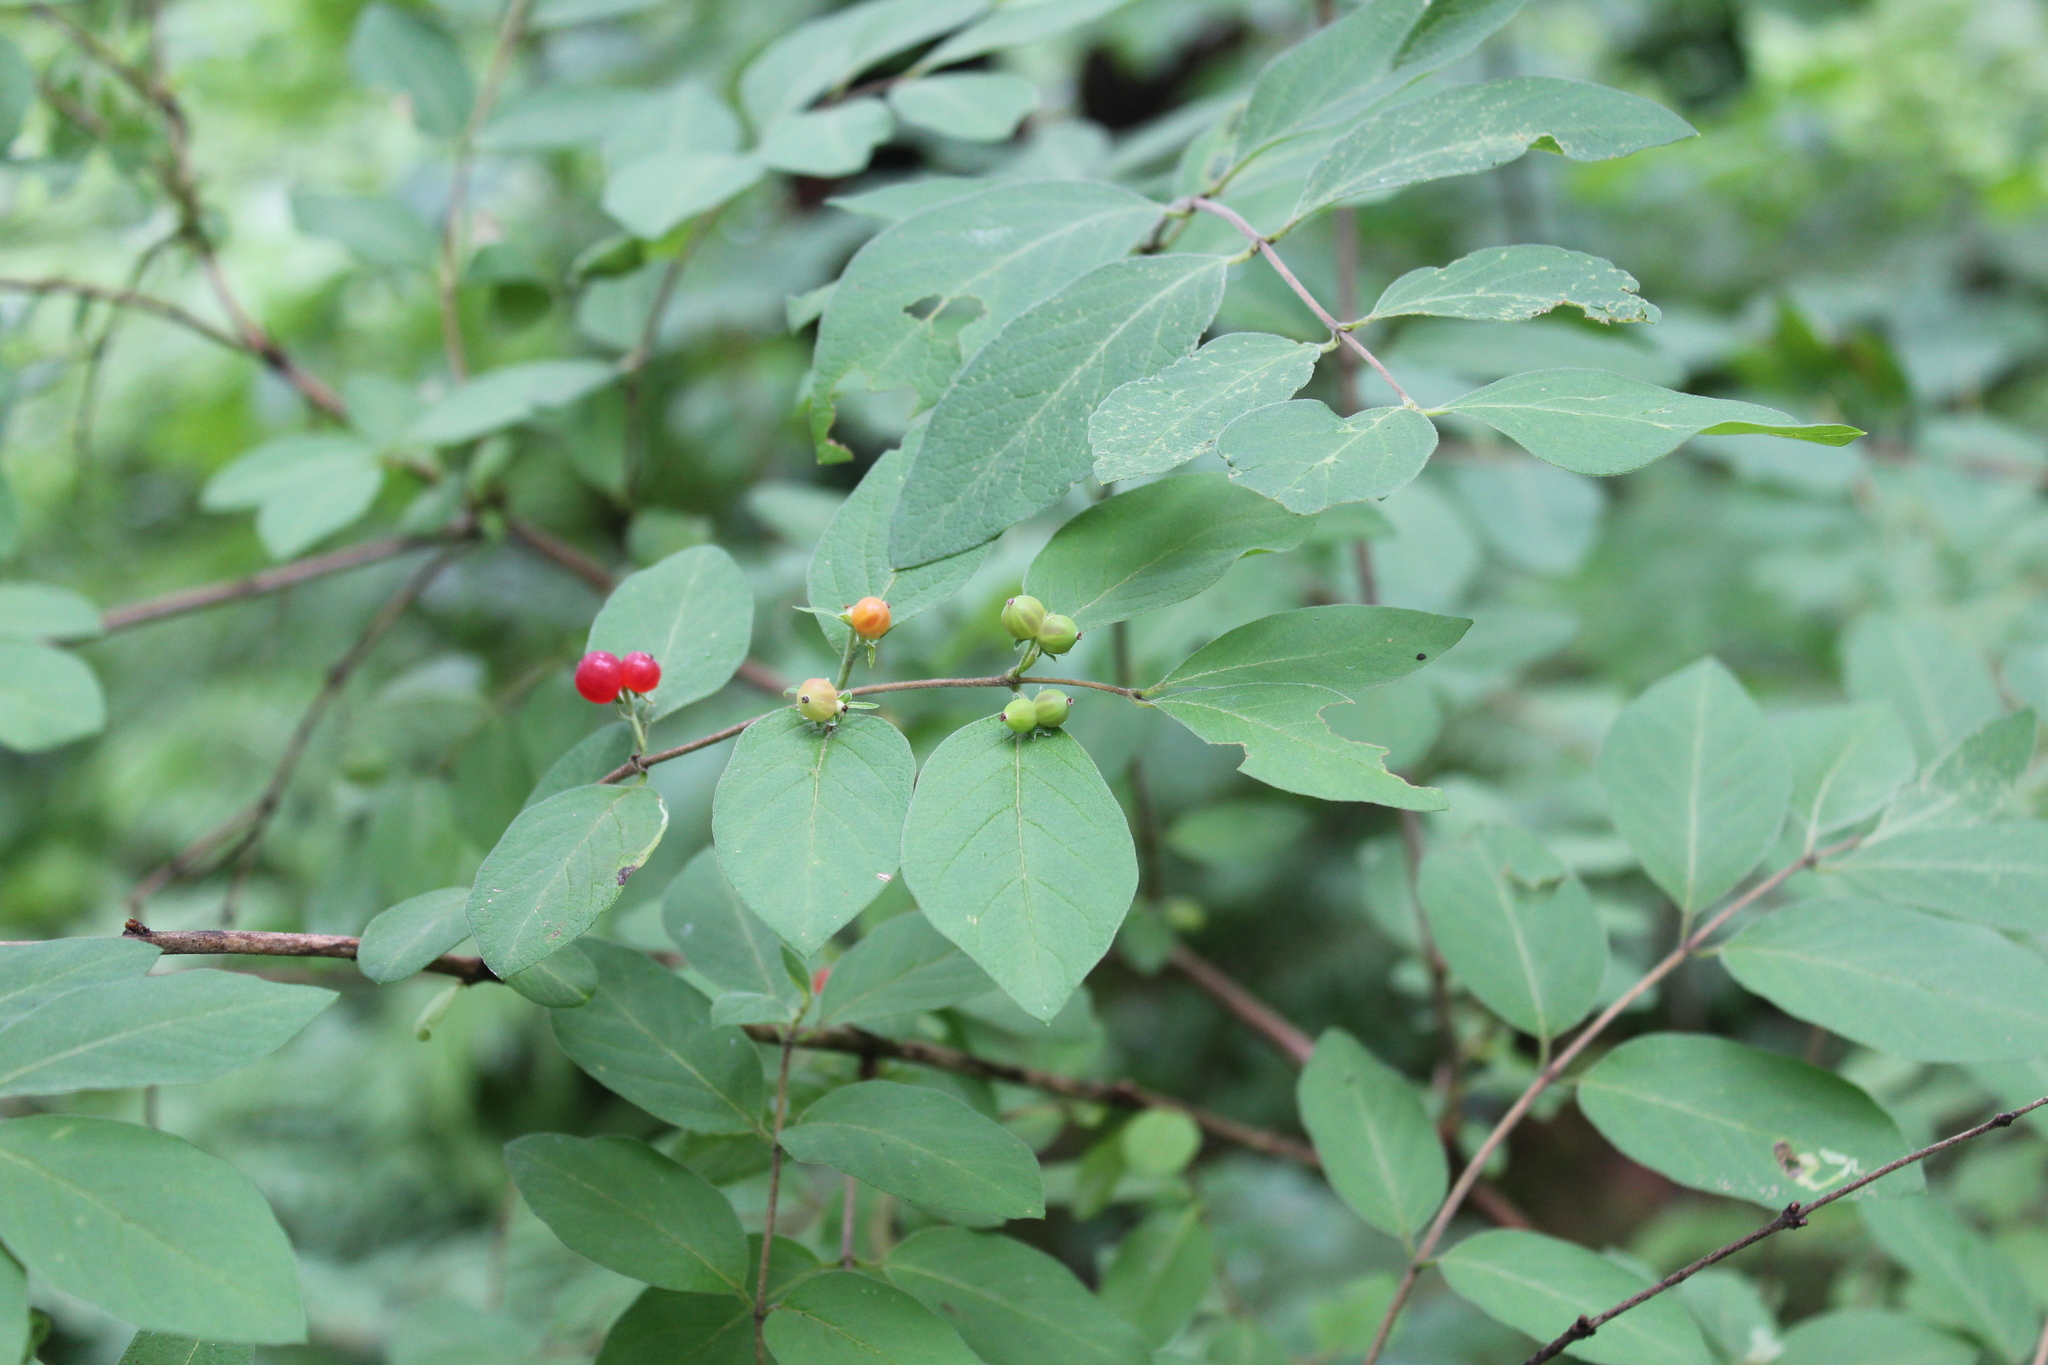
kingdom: Plantae
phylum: Tracheophyta
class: Magnoliopsida
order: Dipsacales
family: Caprifoliaceae
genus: Lonicera
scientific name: Lonicera morrowii
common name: Morrow's honeysuckle
